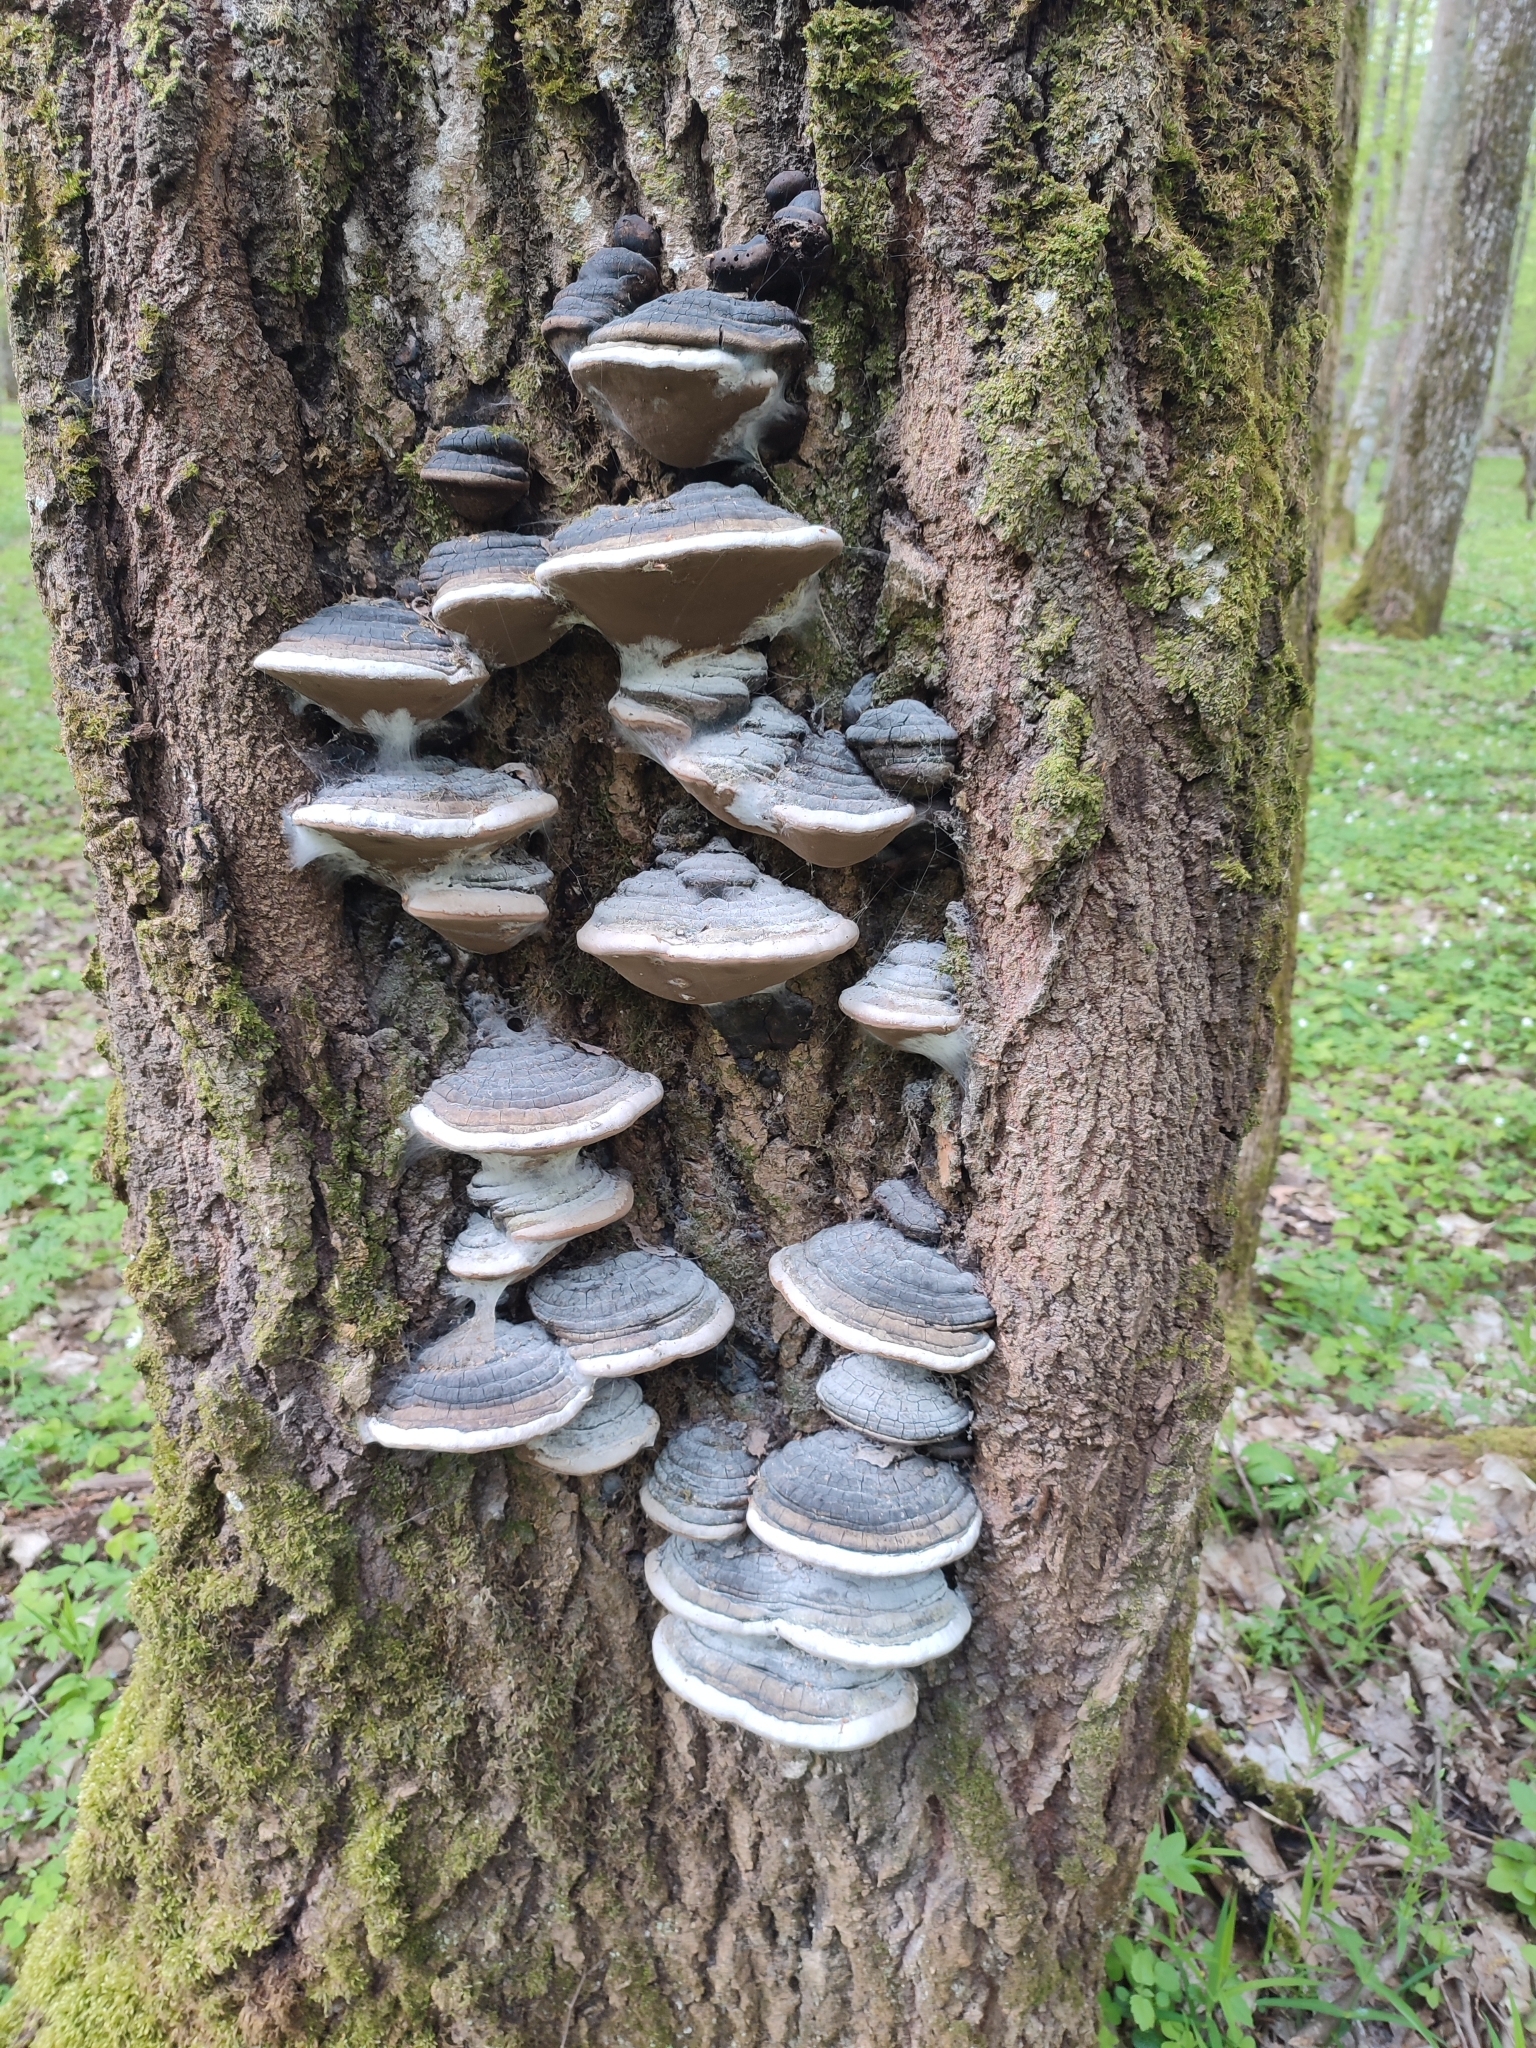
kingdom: Fungi
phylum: Basidiomycota
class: Agaricomycetes
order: Hymenochaetales
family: Hymenochaetaceae
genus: Phellinus
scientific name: Phellinus igniarius
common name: Willow bracket
